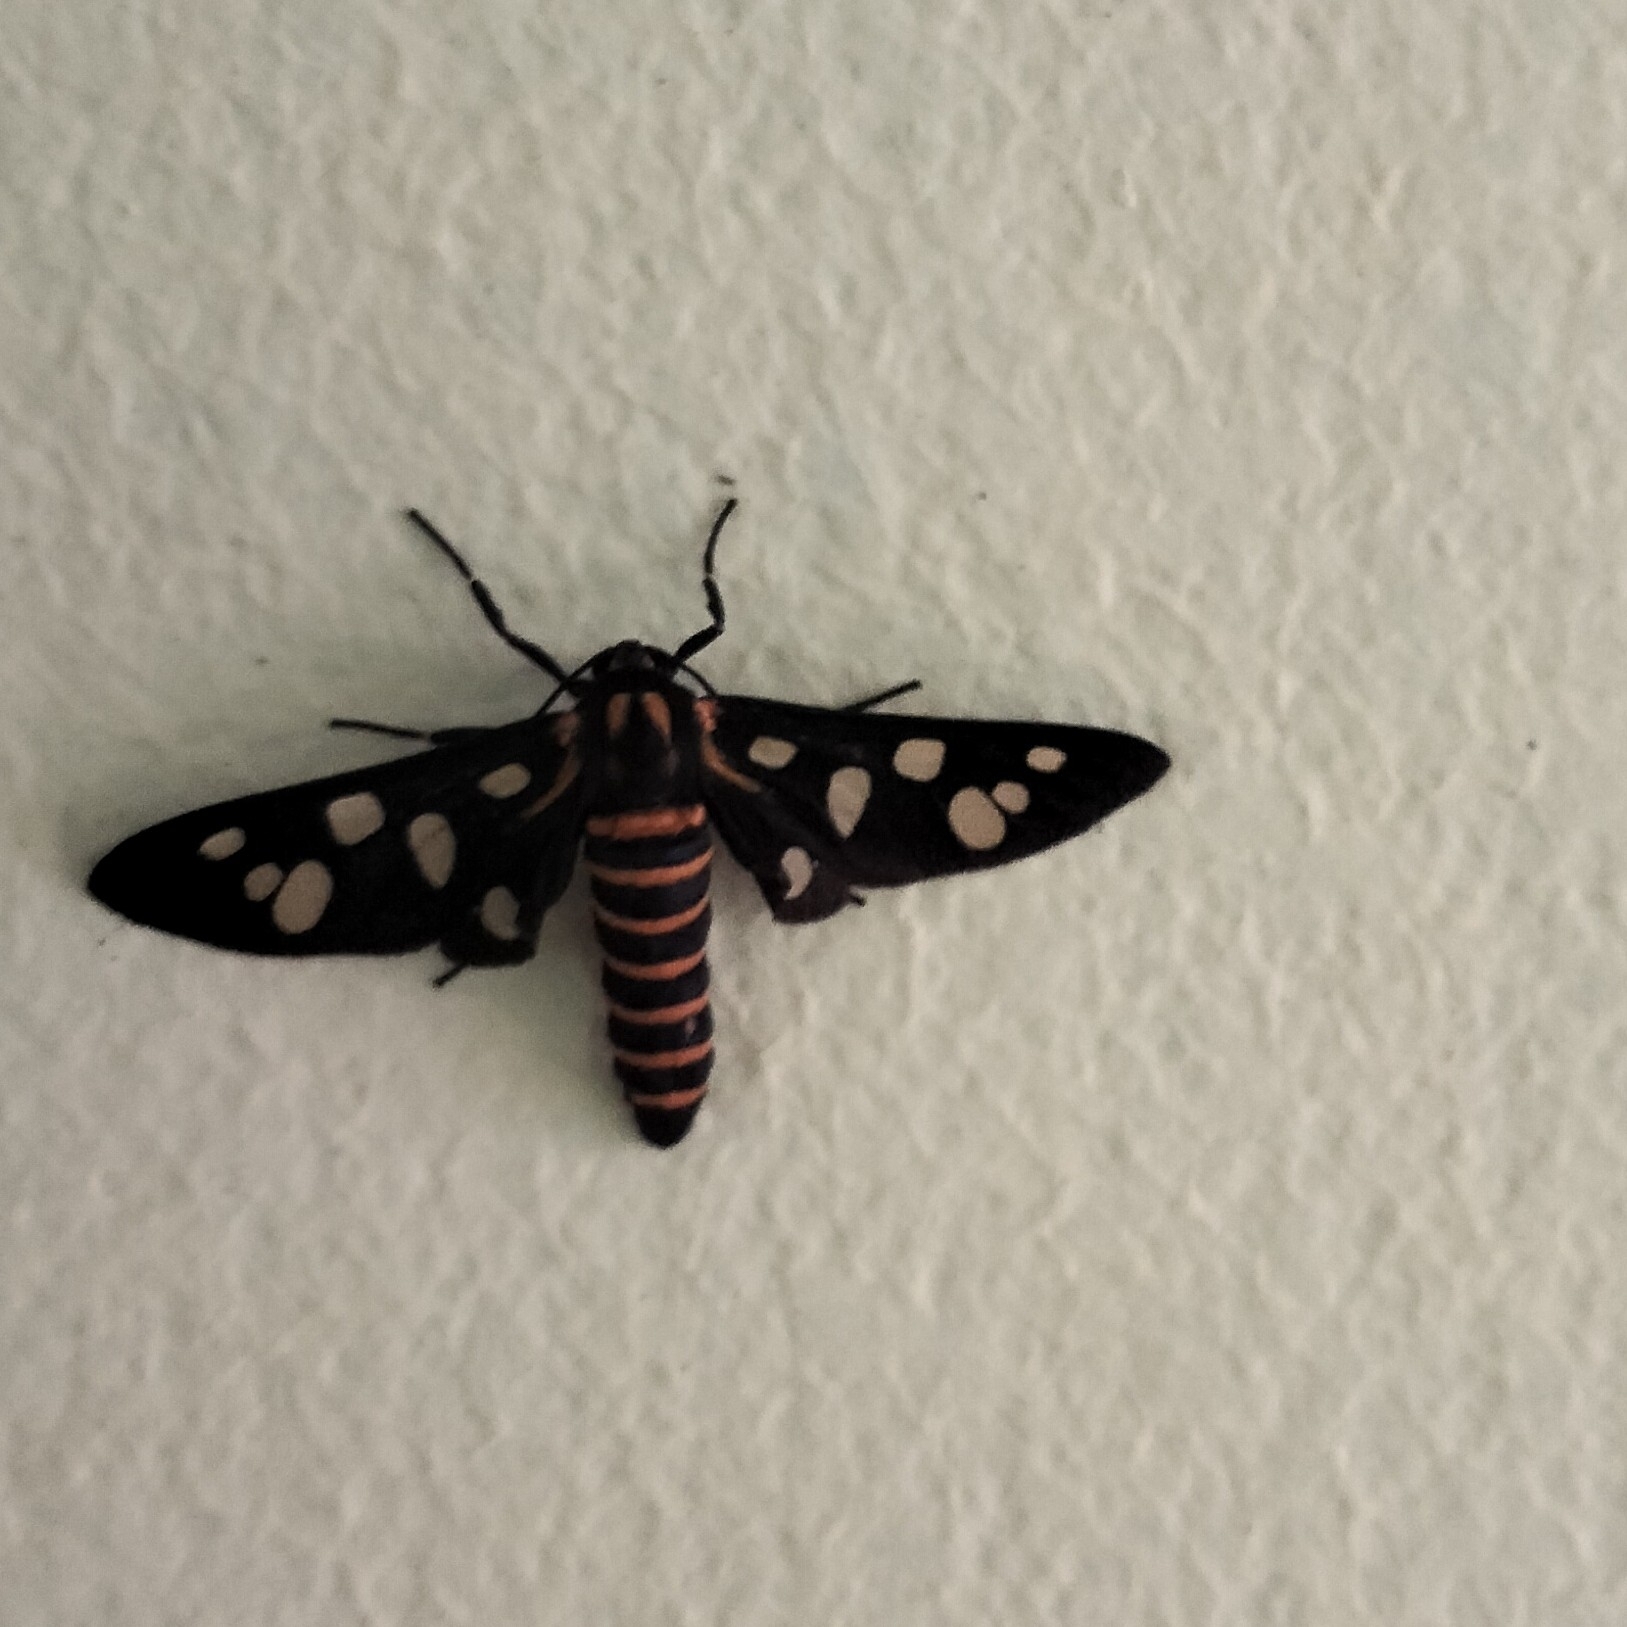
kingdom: Animalia
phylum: Arthropoda
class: Insecta
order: Lepidoptera
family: Erebidae
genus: Amata
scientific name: Amata passalis
